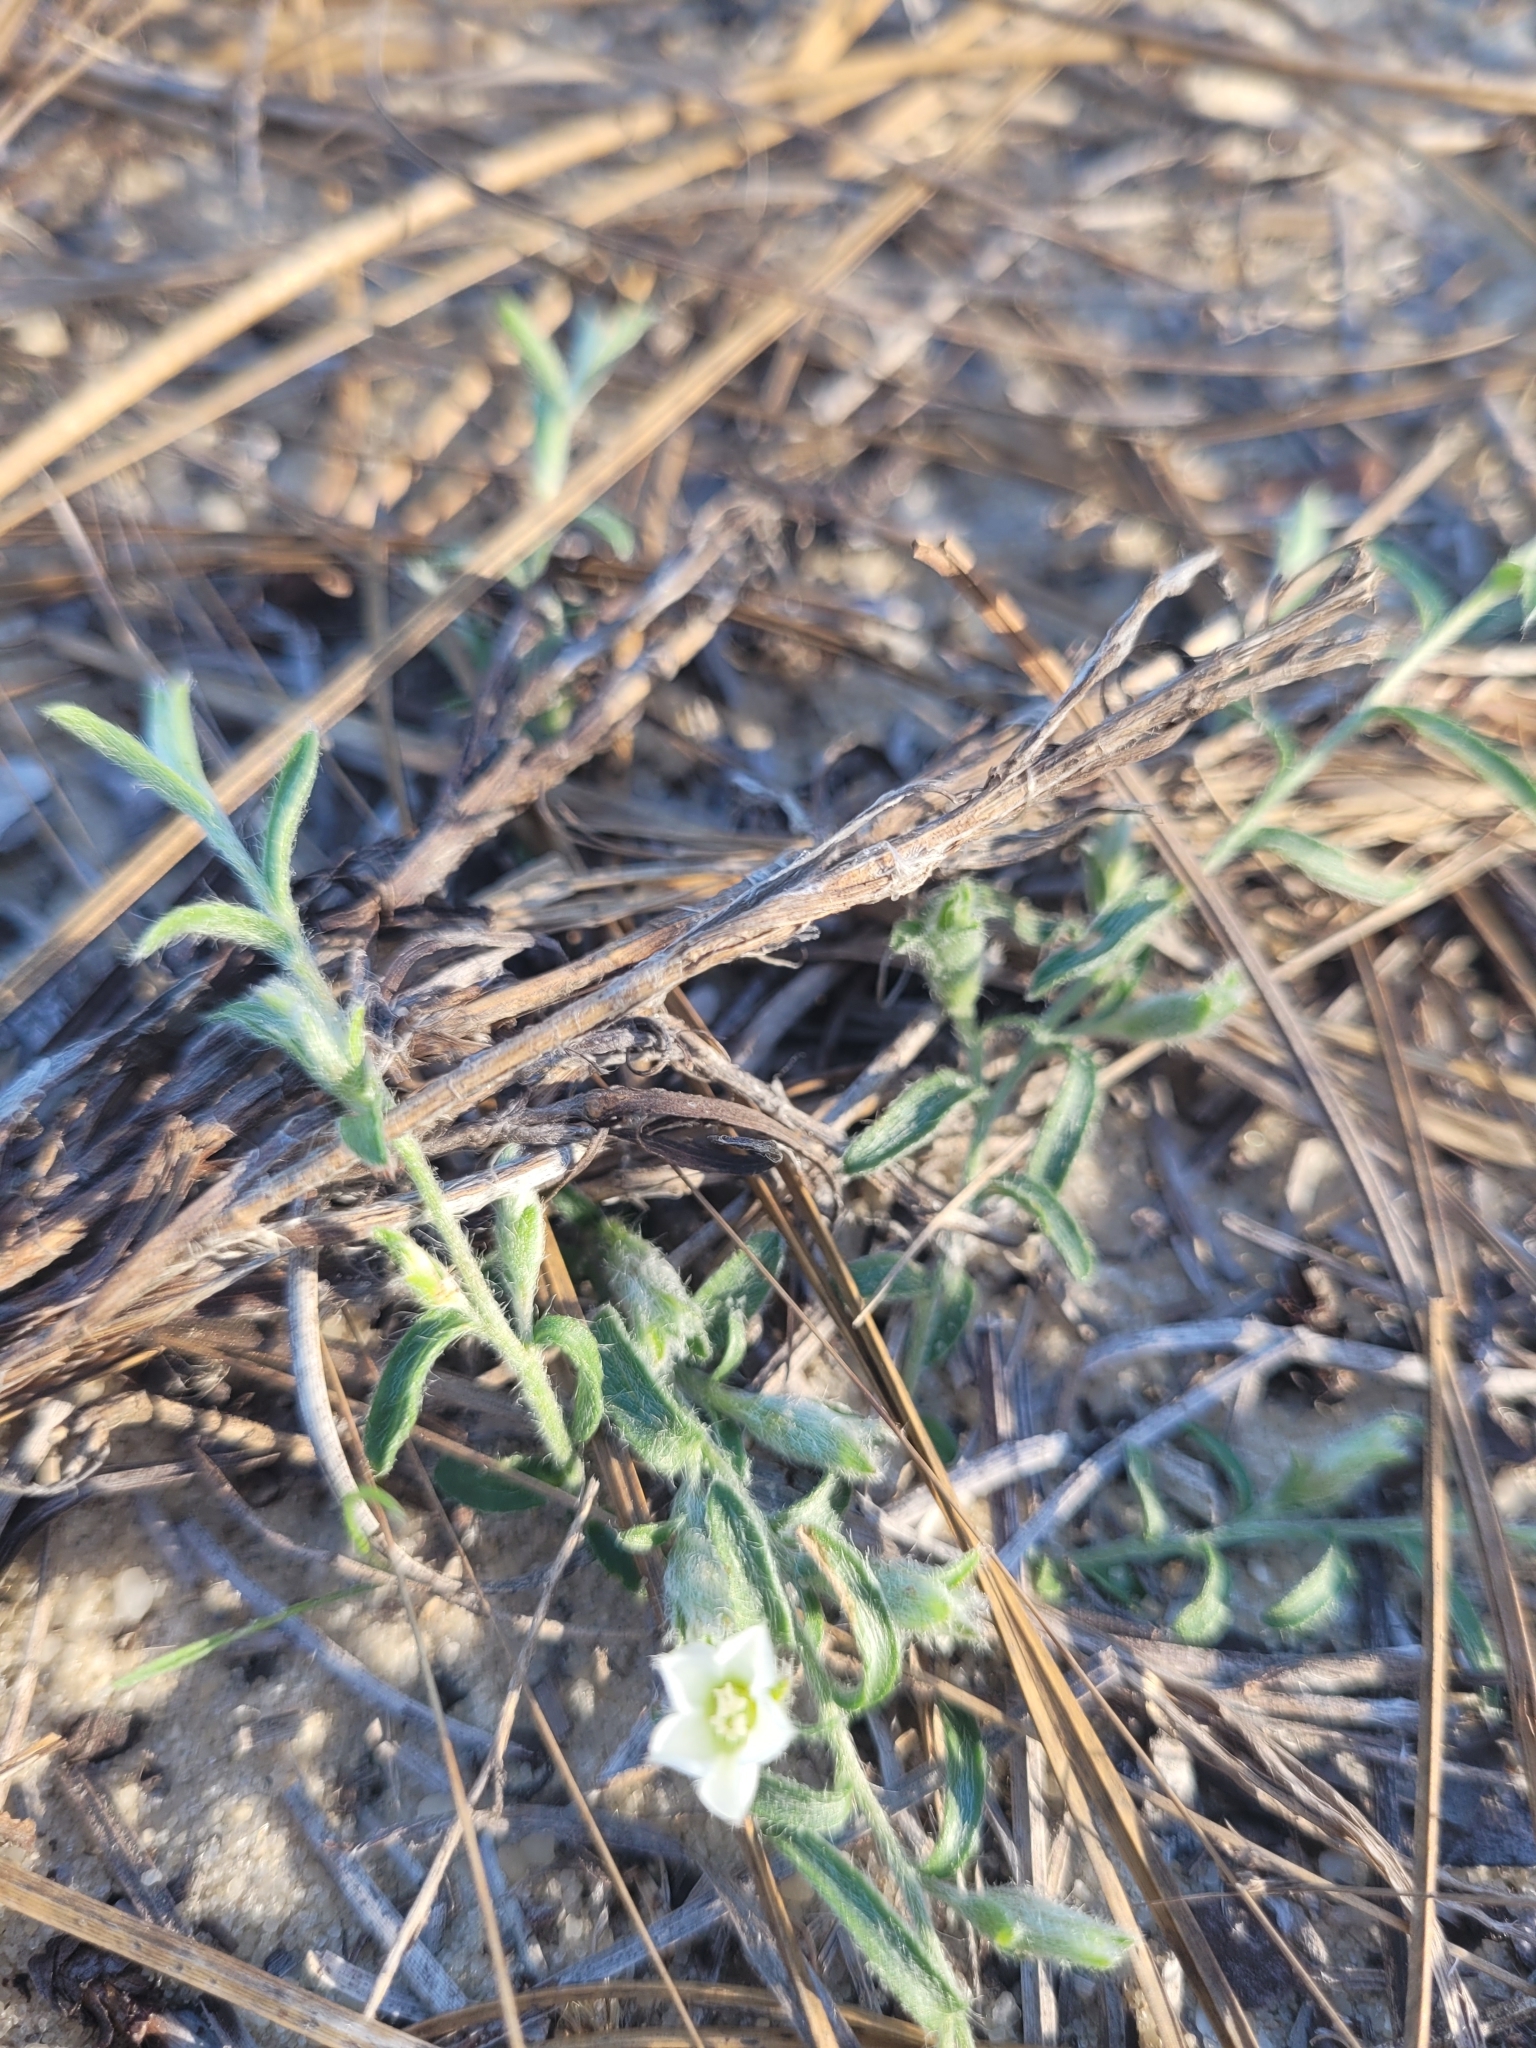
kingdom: Plantae
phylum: Tracheophyta
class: Magnoliopsida
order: Solanales
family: Convolvulaceae
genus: Evolvulus
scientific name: Evolvulus sericeus
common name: Blue dots
